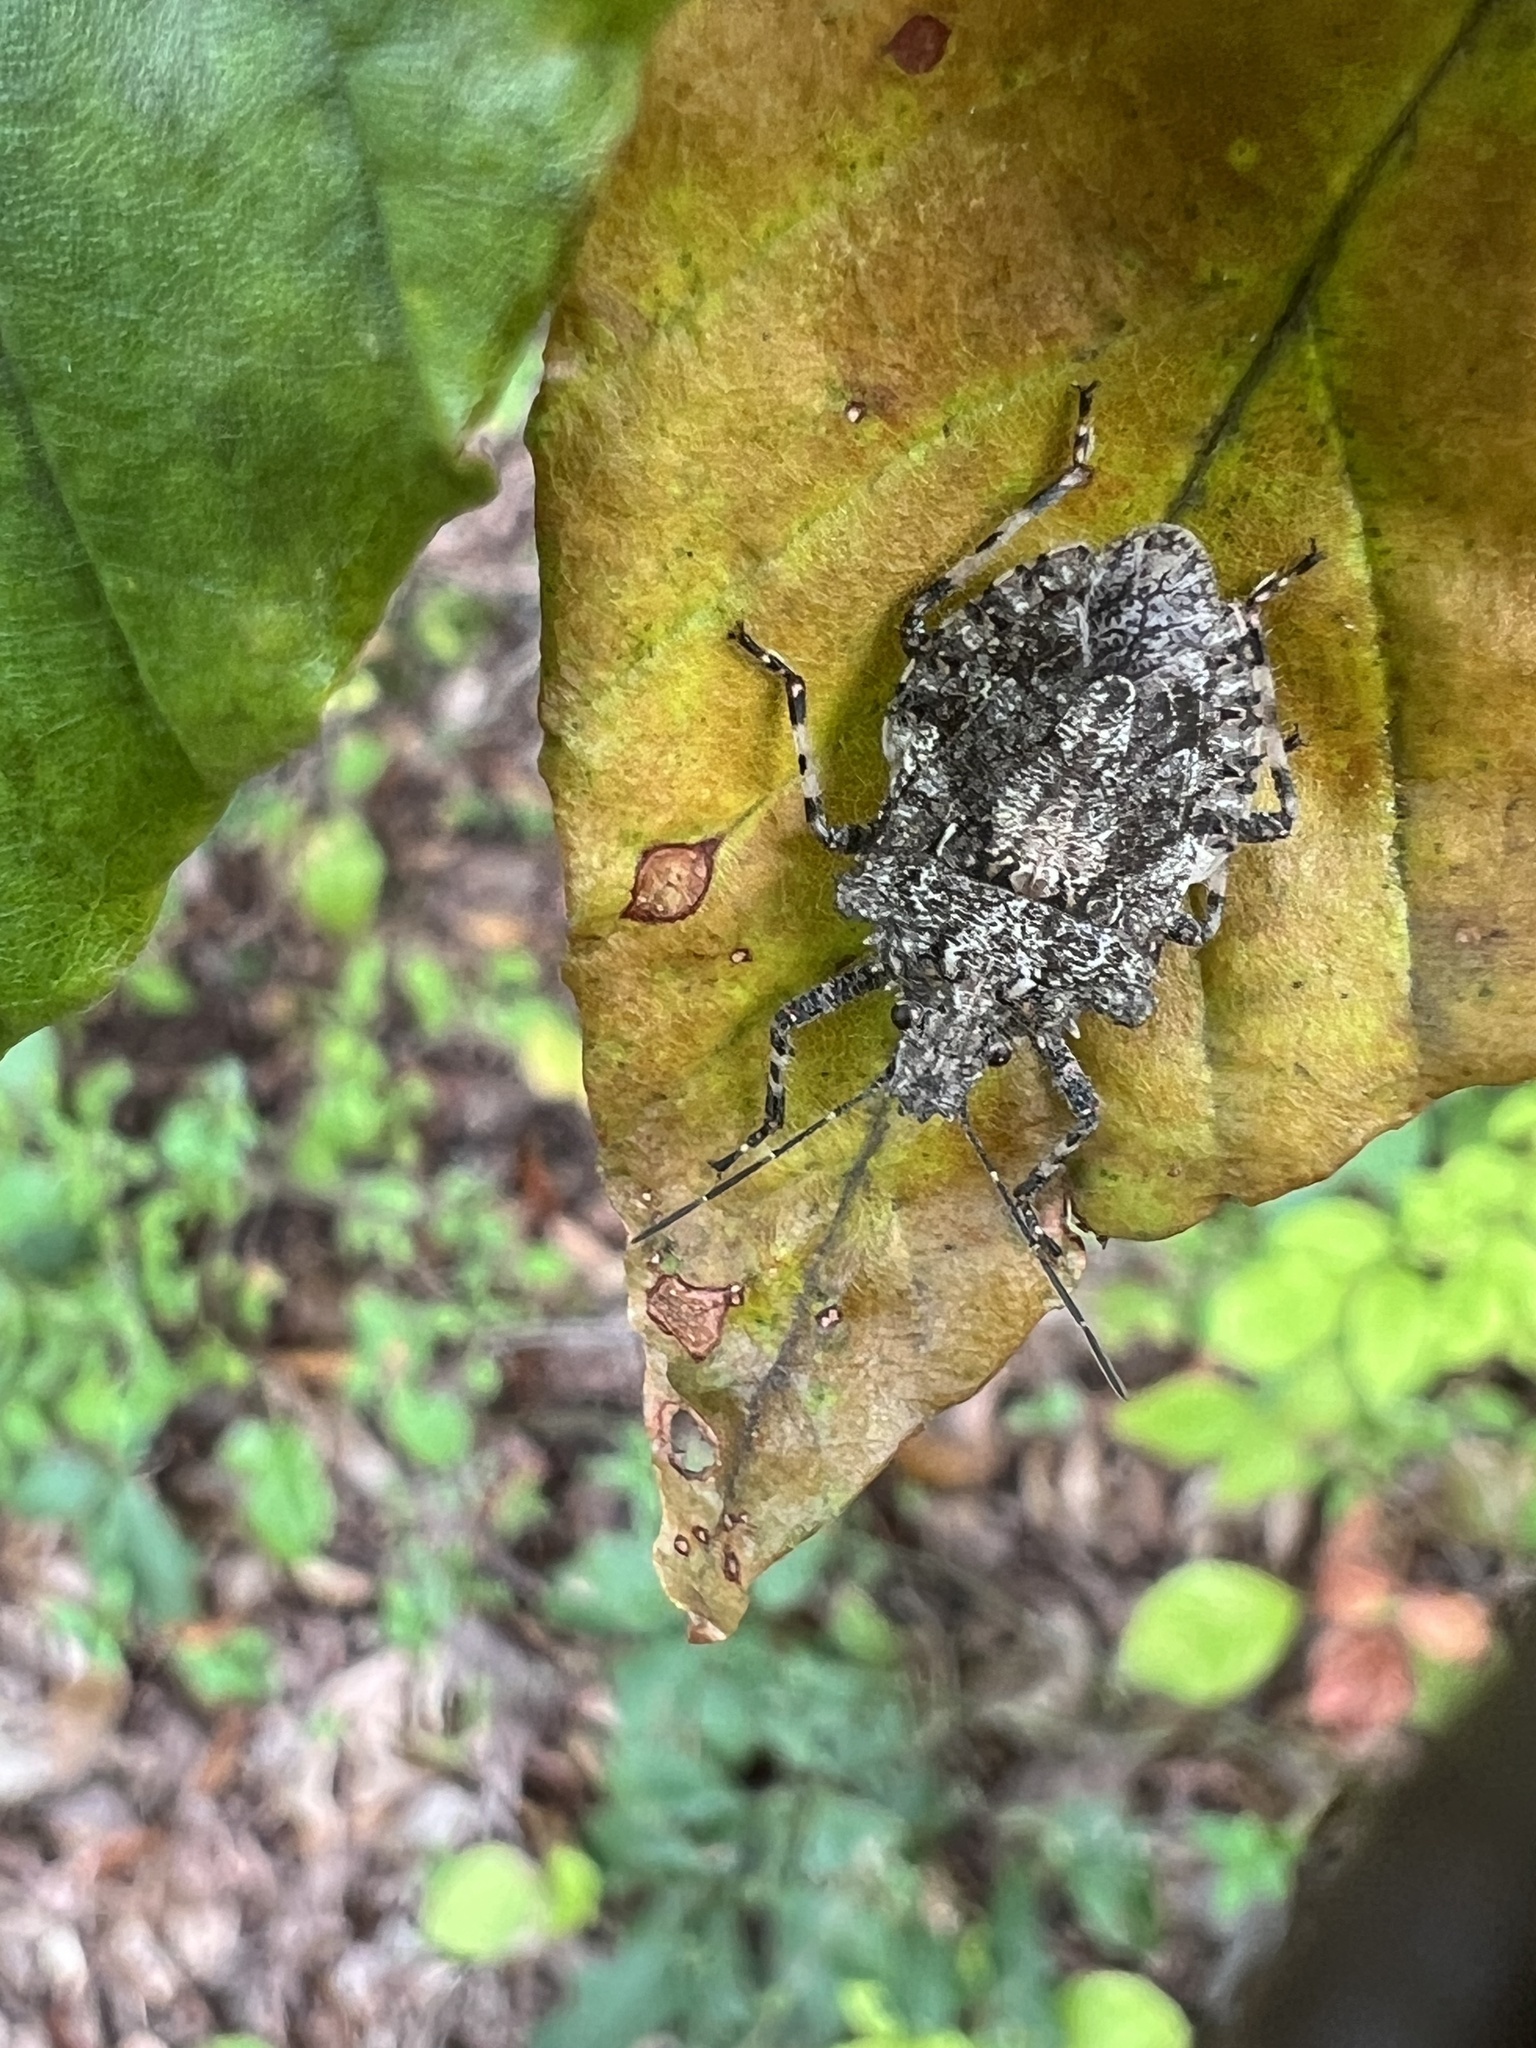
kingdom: Animalia
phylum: Arthropoda
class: Insecta
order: Hemiptera
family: Pentatomidae
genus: Brochymena
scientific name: Brochymena arborea
